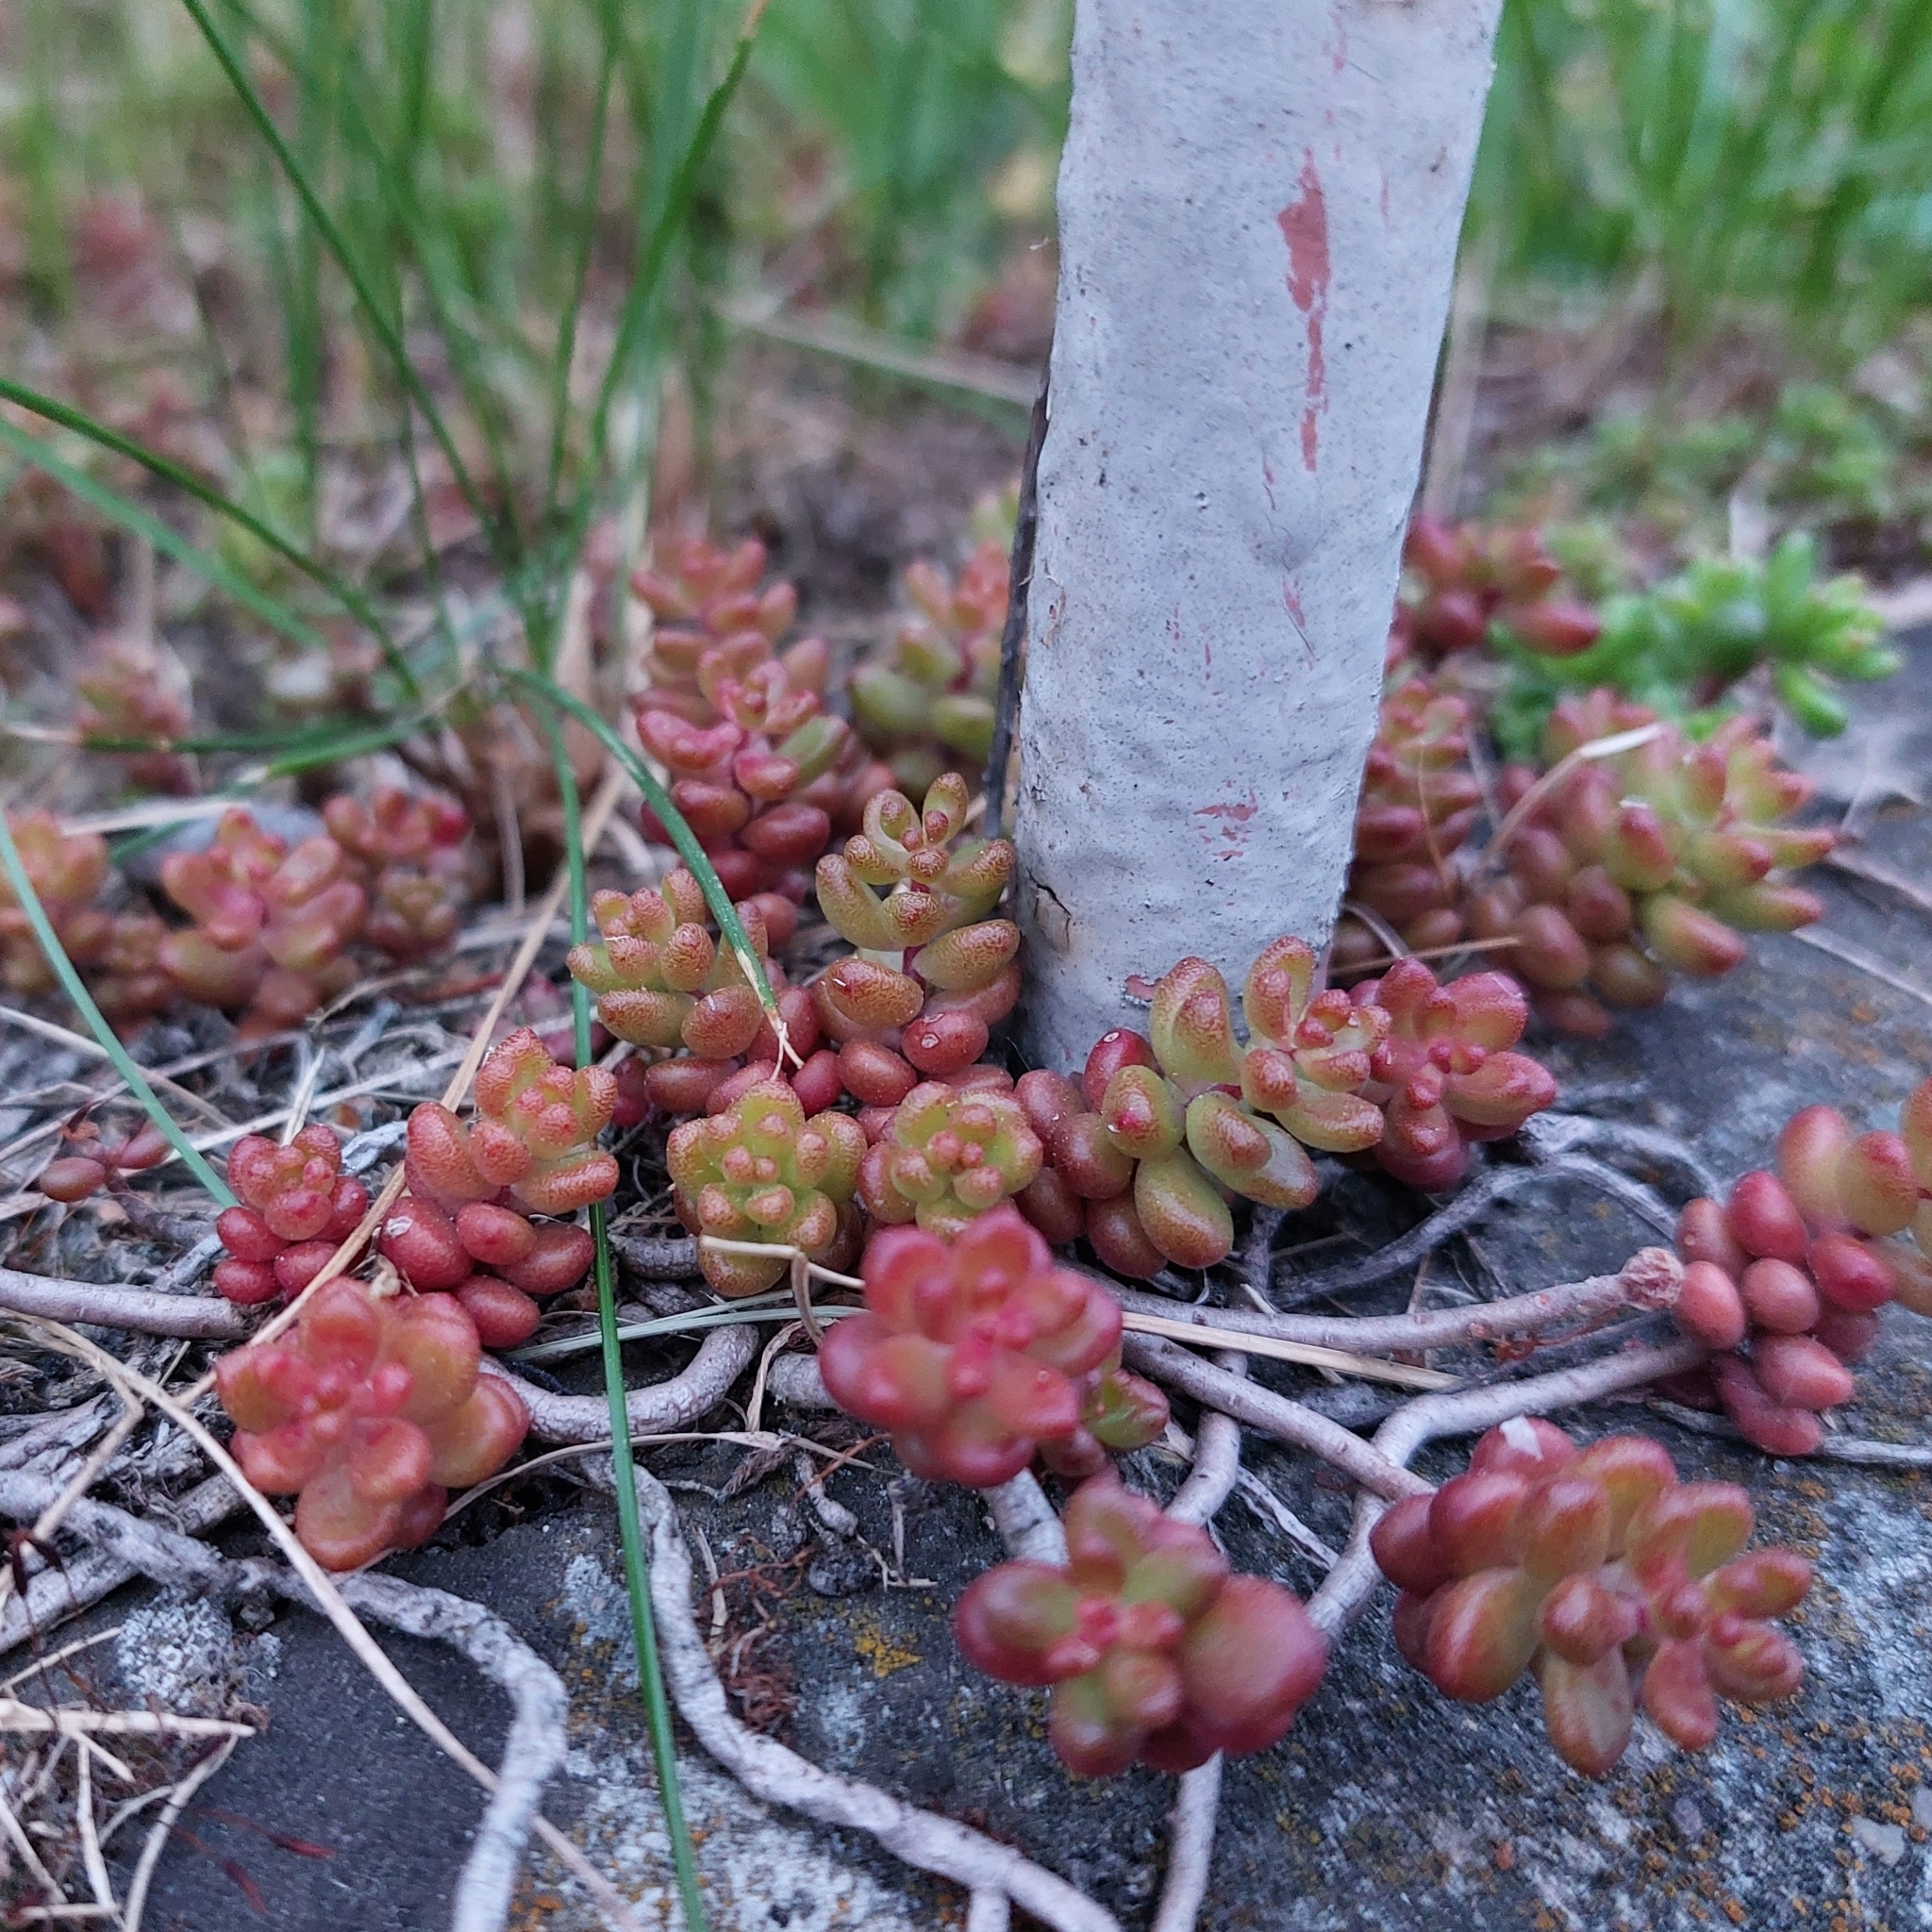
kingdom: Plantae
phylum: Tracheophyta
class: Magnoliopsida
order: Saxifragales
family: Crassulaceae
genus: Sedum
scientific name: Sedum album
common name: White stonecrop
